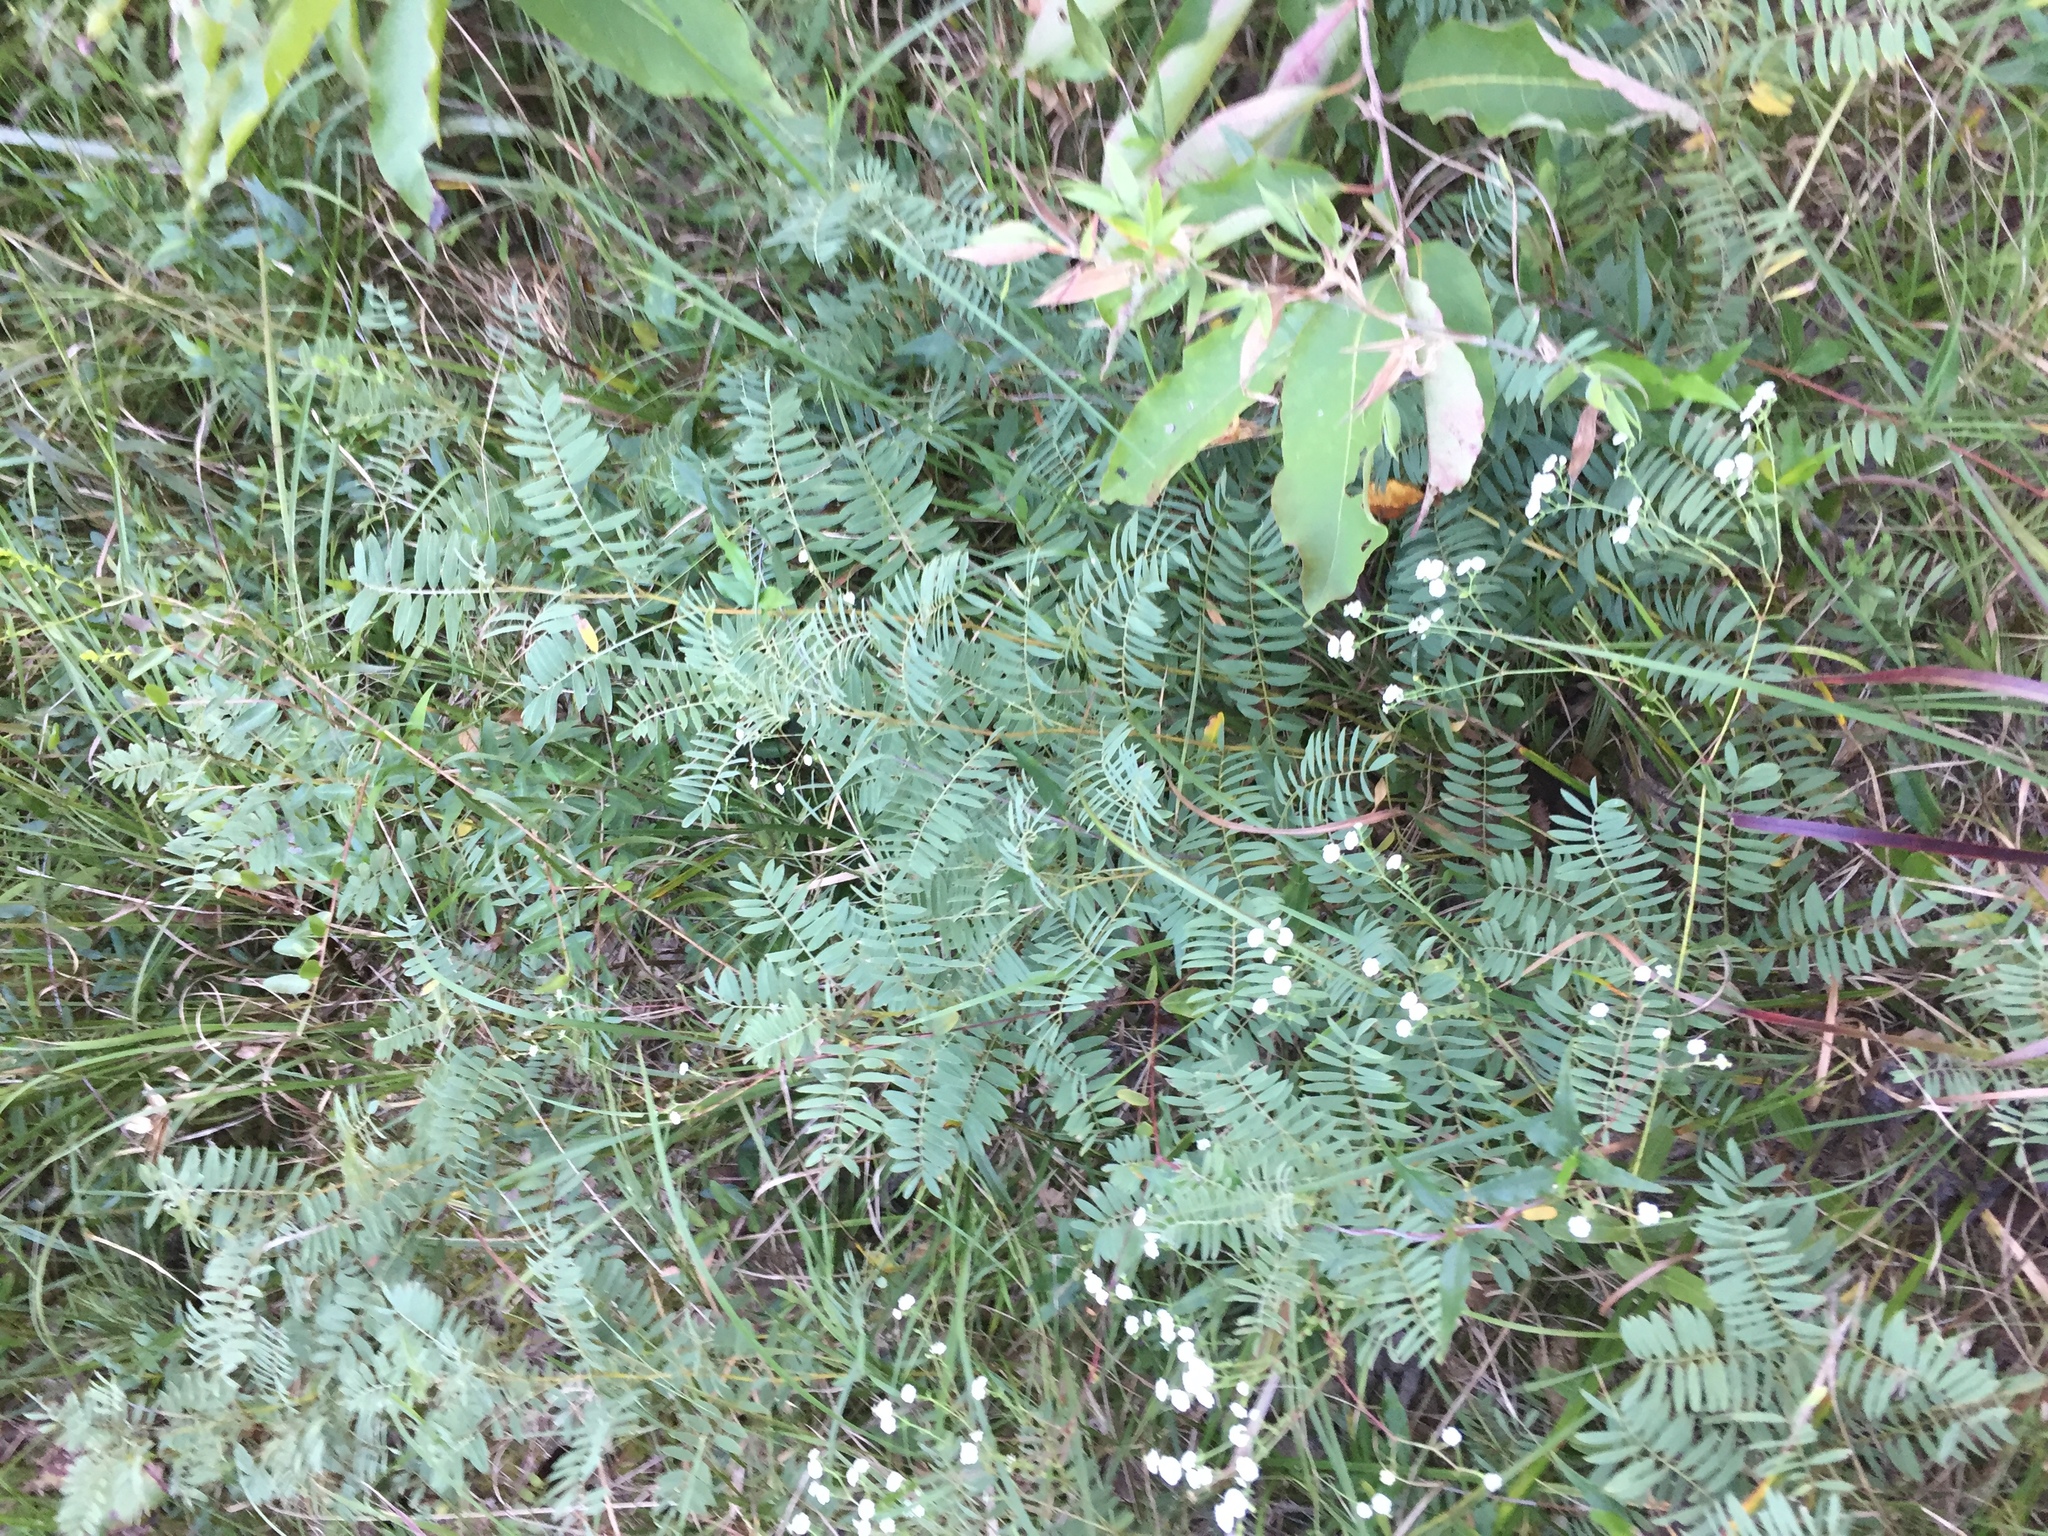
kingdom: Plantae
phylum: Tracheophyta
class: Magnoliopsida
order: Fabales
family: Fabaceae
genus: Tephrosia
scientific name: Tephrosia virginiana
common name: Rabbit-pea
